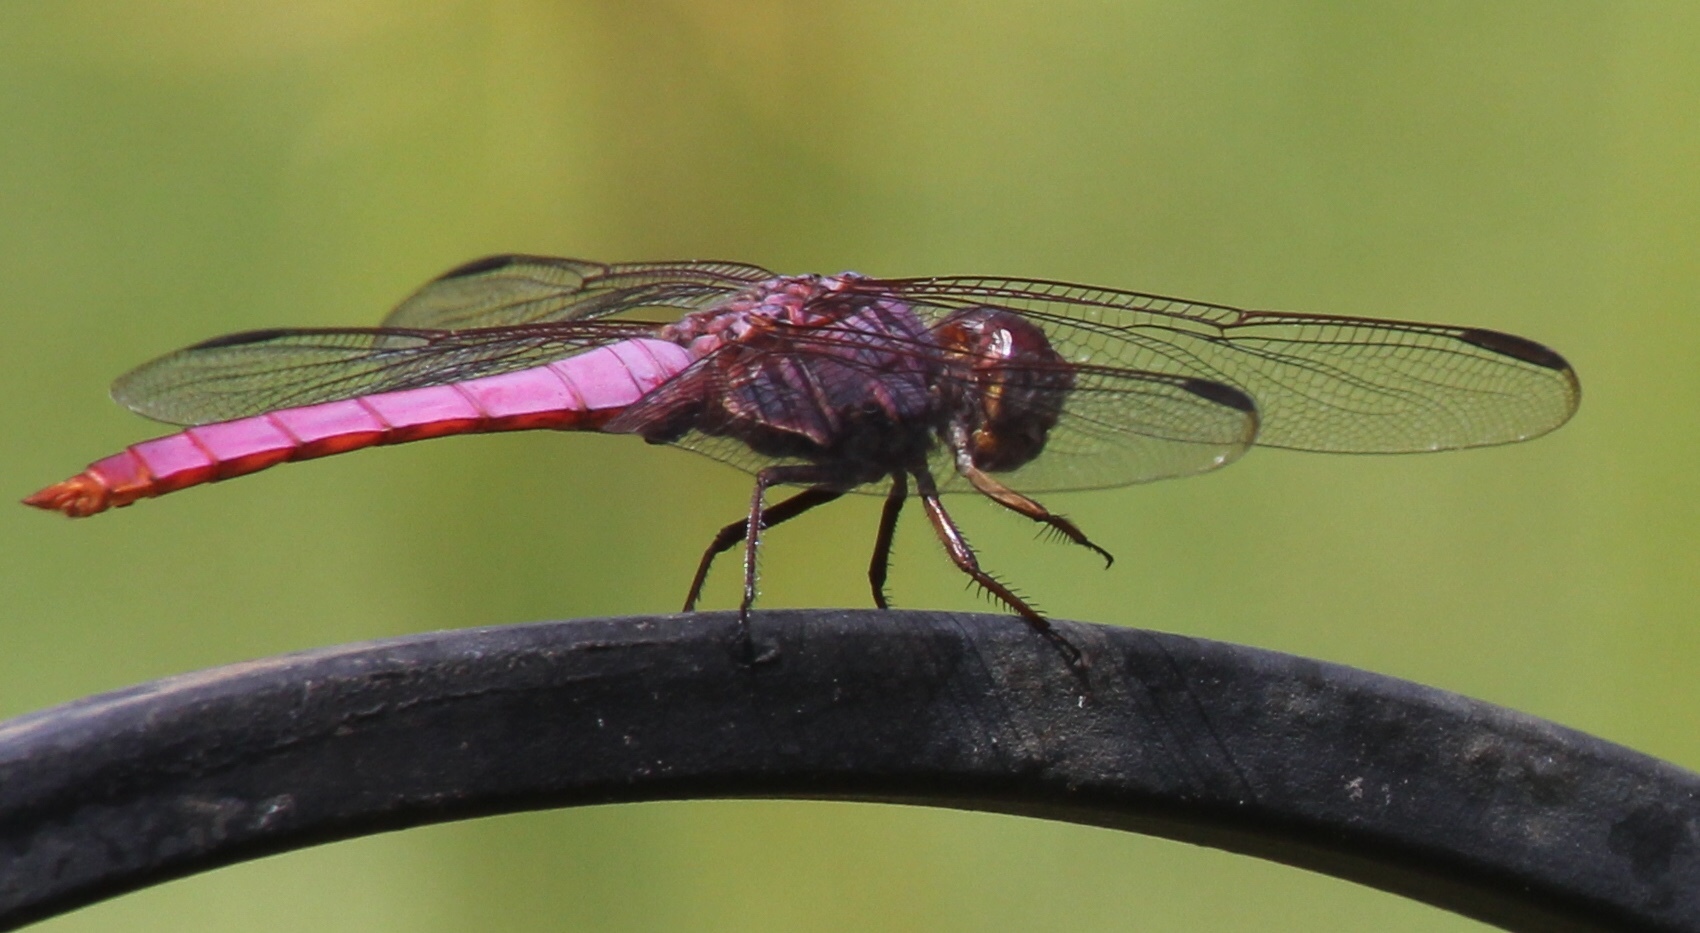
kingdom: Animalia
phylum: Arthropoda
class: Insecta
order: Odonata
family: Libellulidae
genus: Orthemis
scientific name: Orthemis ferruginea
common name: Roseate skimmer
